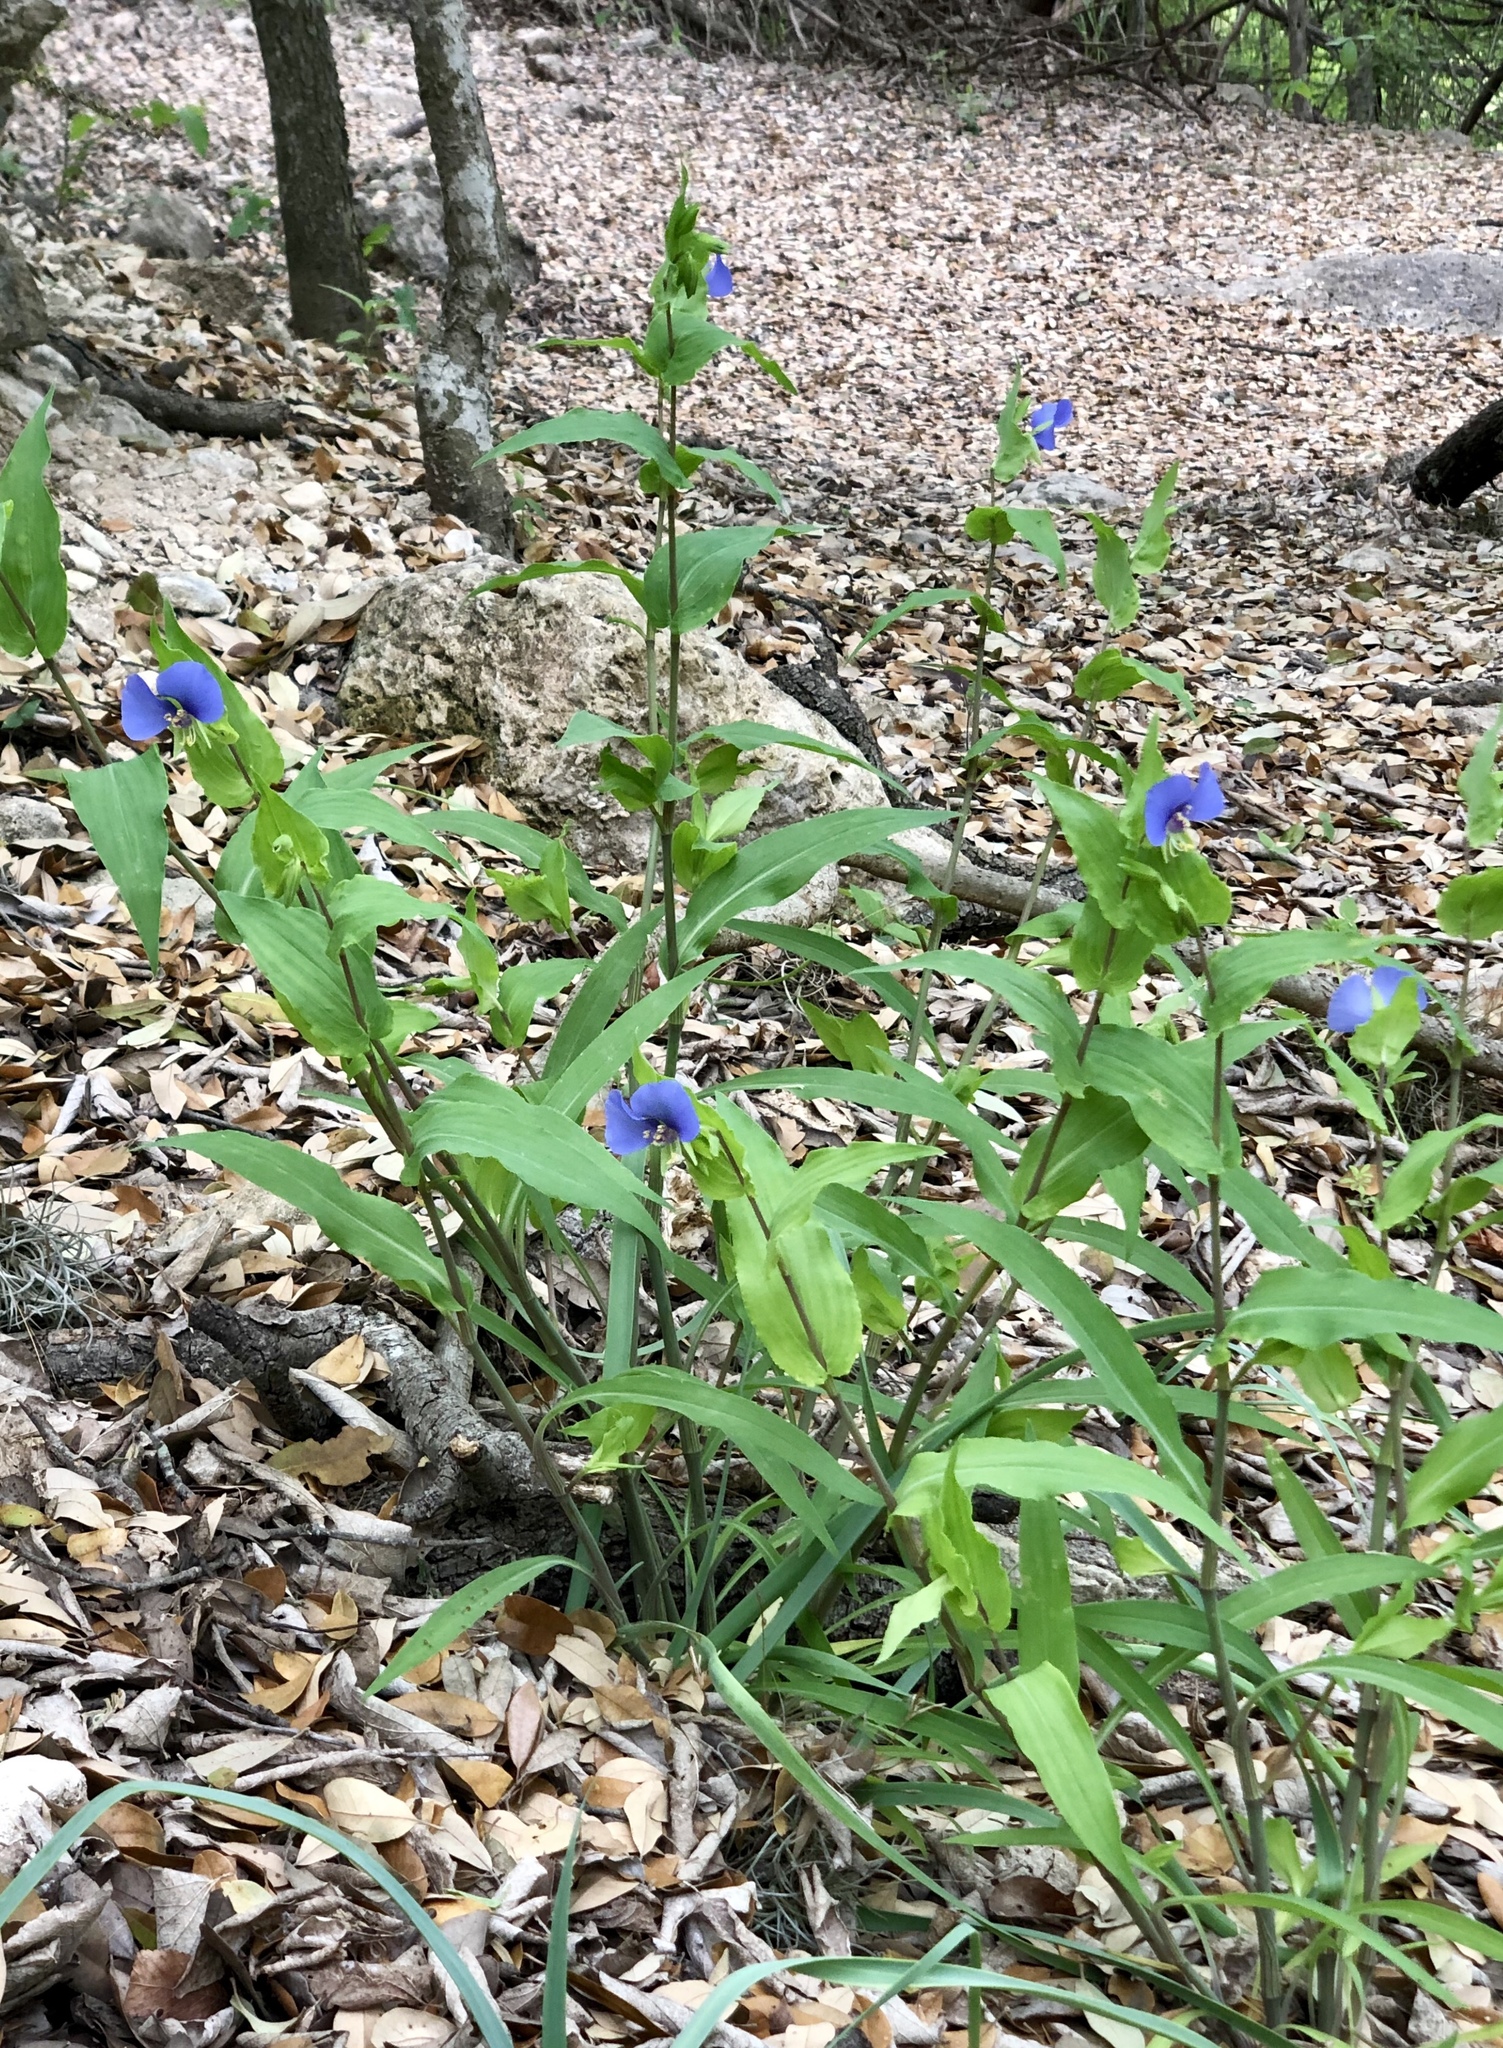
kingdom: Plantae
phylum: Tracheophyta
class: Liliopsida
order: Commelinales
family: Commelinaceae
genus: Tinantia
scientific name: Tinantia anomala
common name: False dayflower
